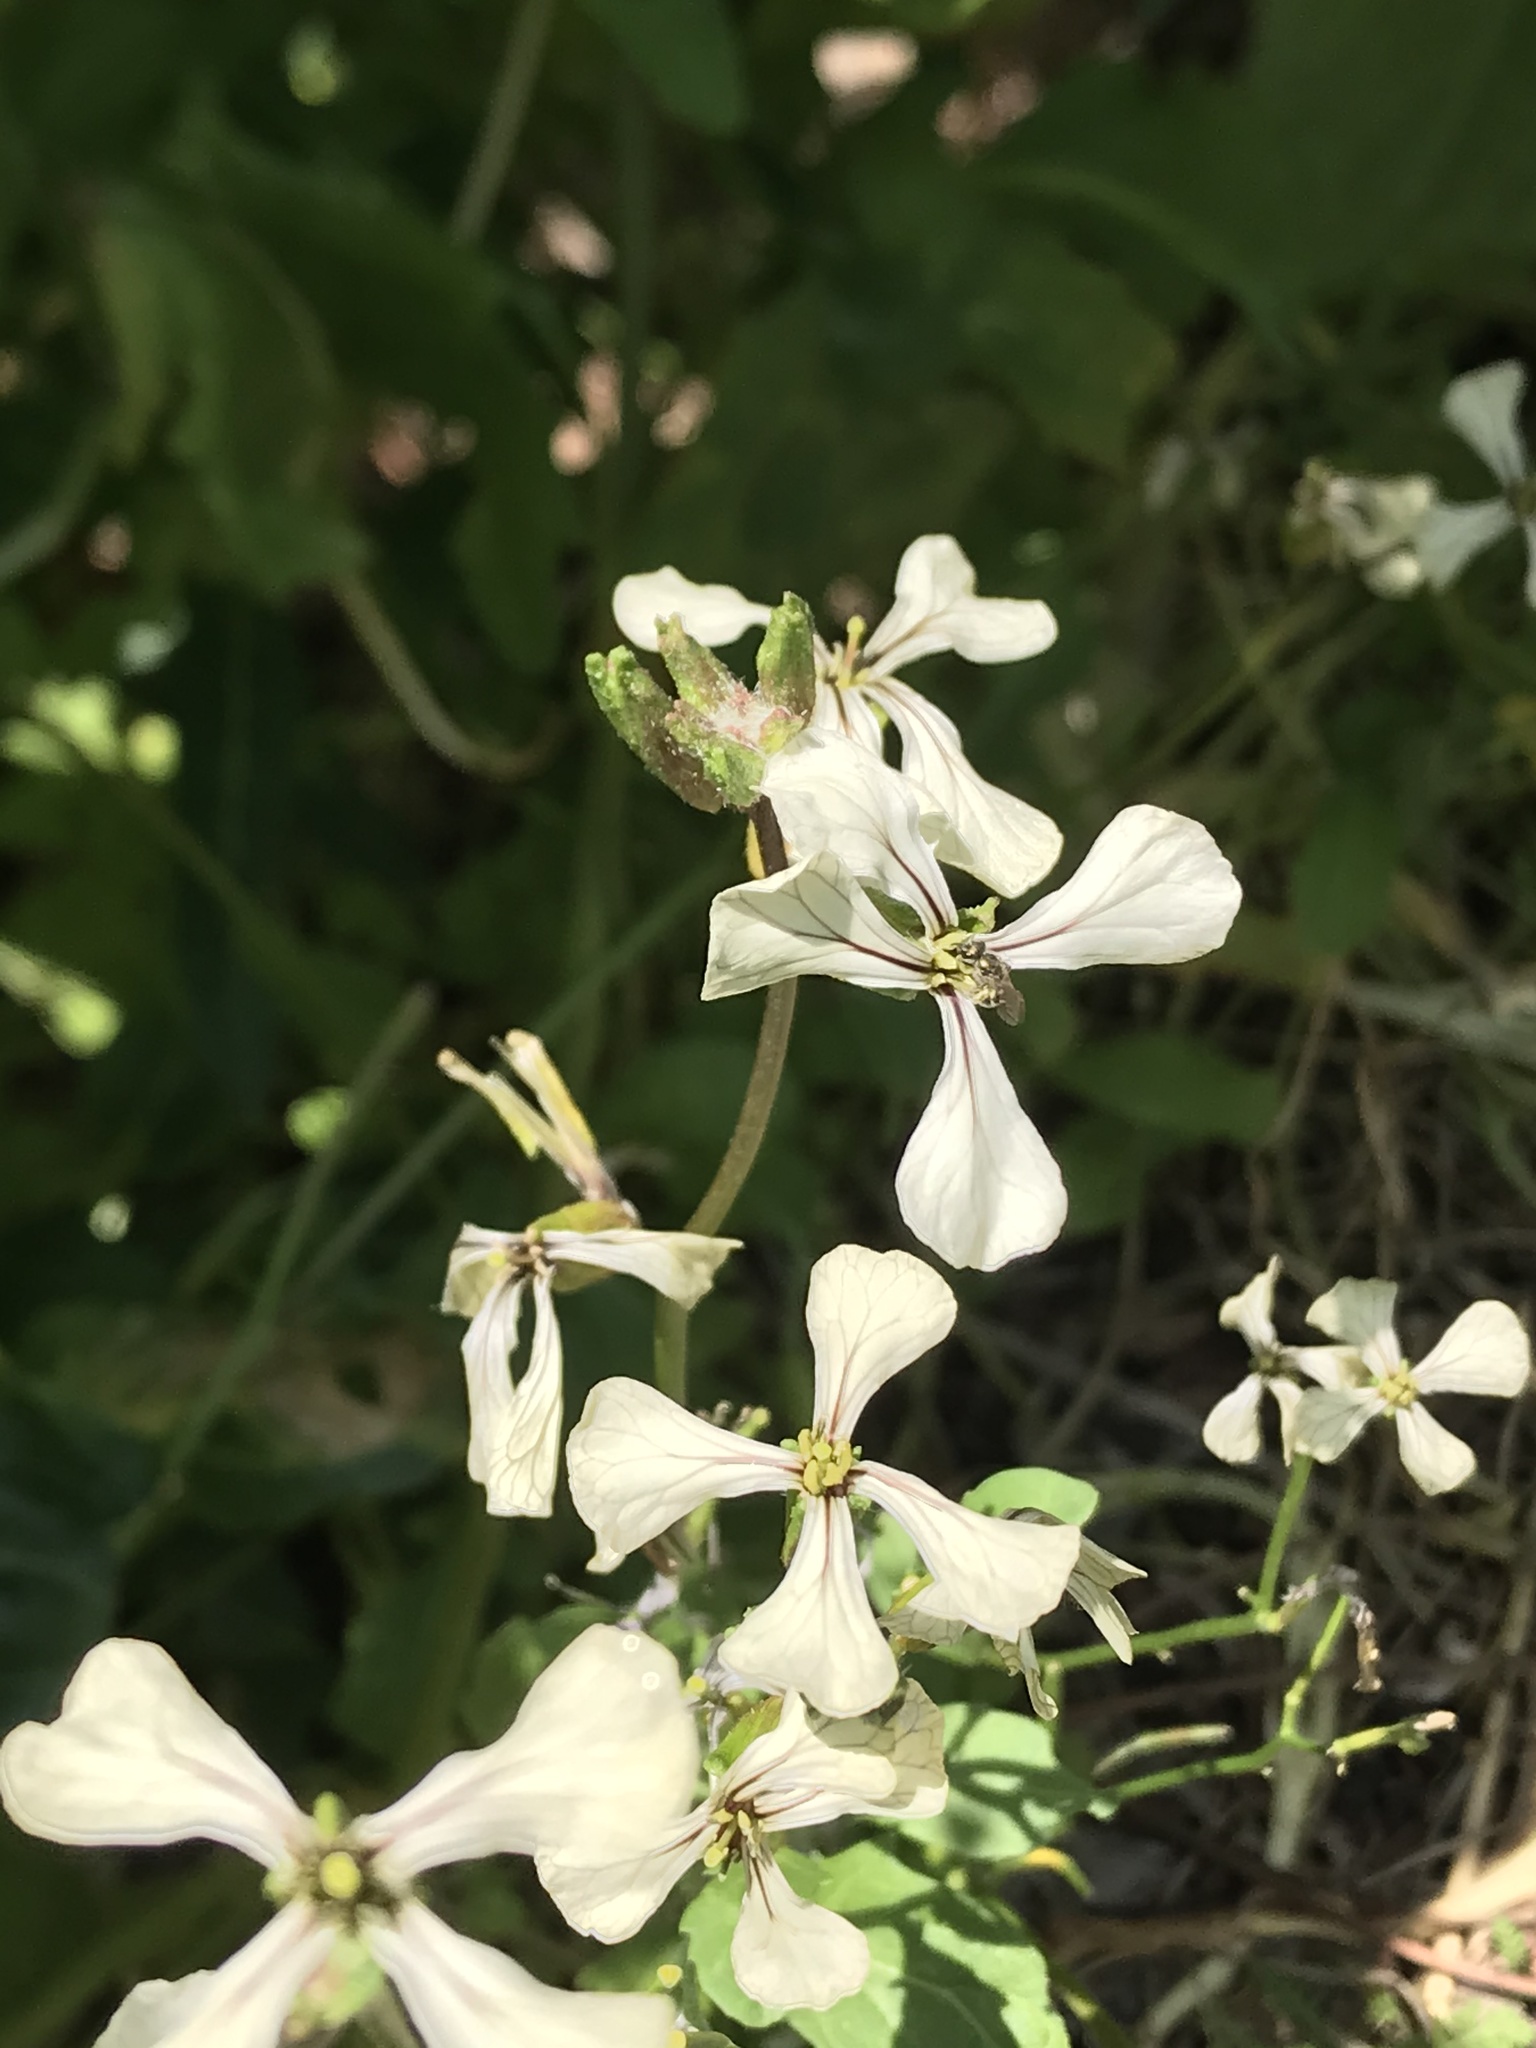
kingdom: Animalia
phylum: Arthropoda
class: Insecta
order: Hymenoptera
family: Halictidae
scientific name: Halictidae
